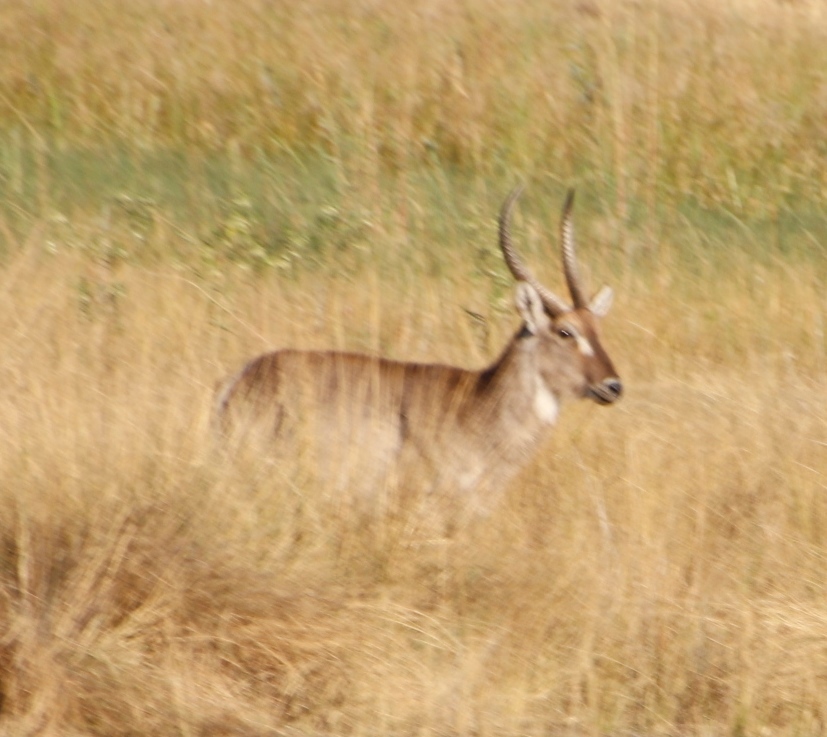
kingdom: Animalia
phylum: Chordata
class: Mammalia
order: Artiodactyla
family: Bovidae
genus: Kobus
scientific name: Kobus ellipsiprymnus
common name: Waterbuck
